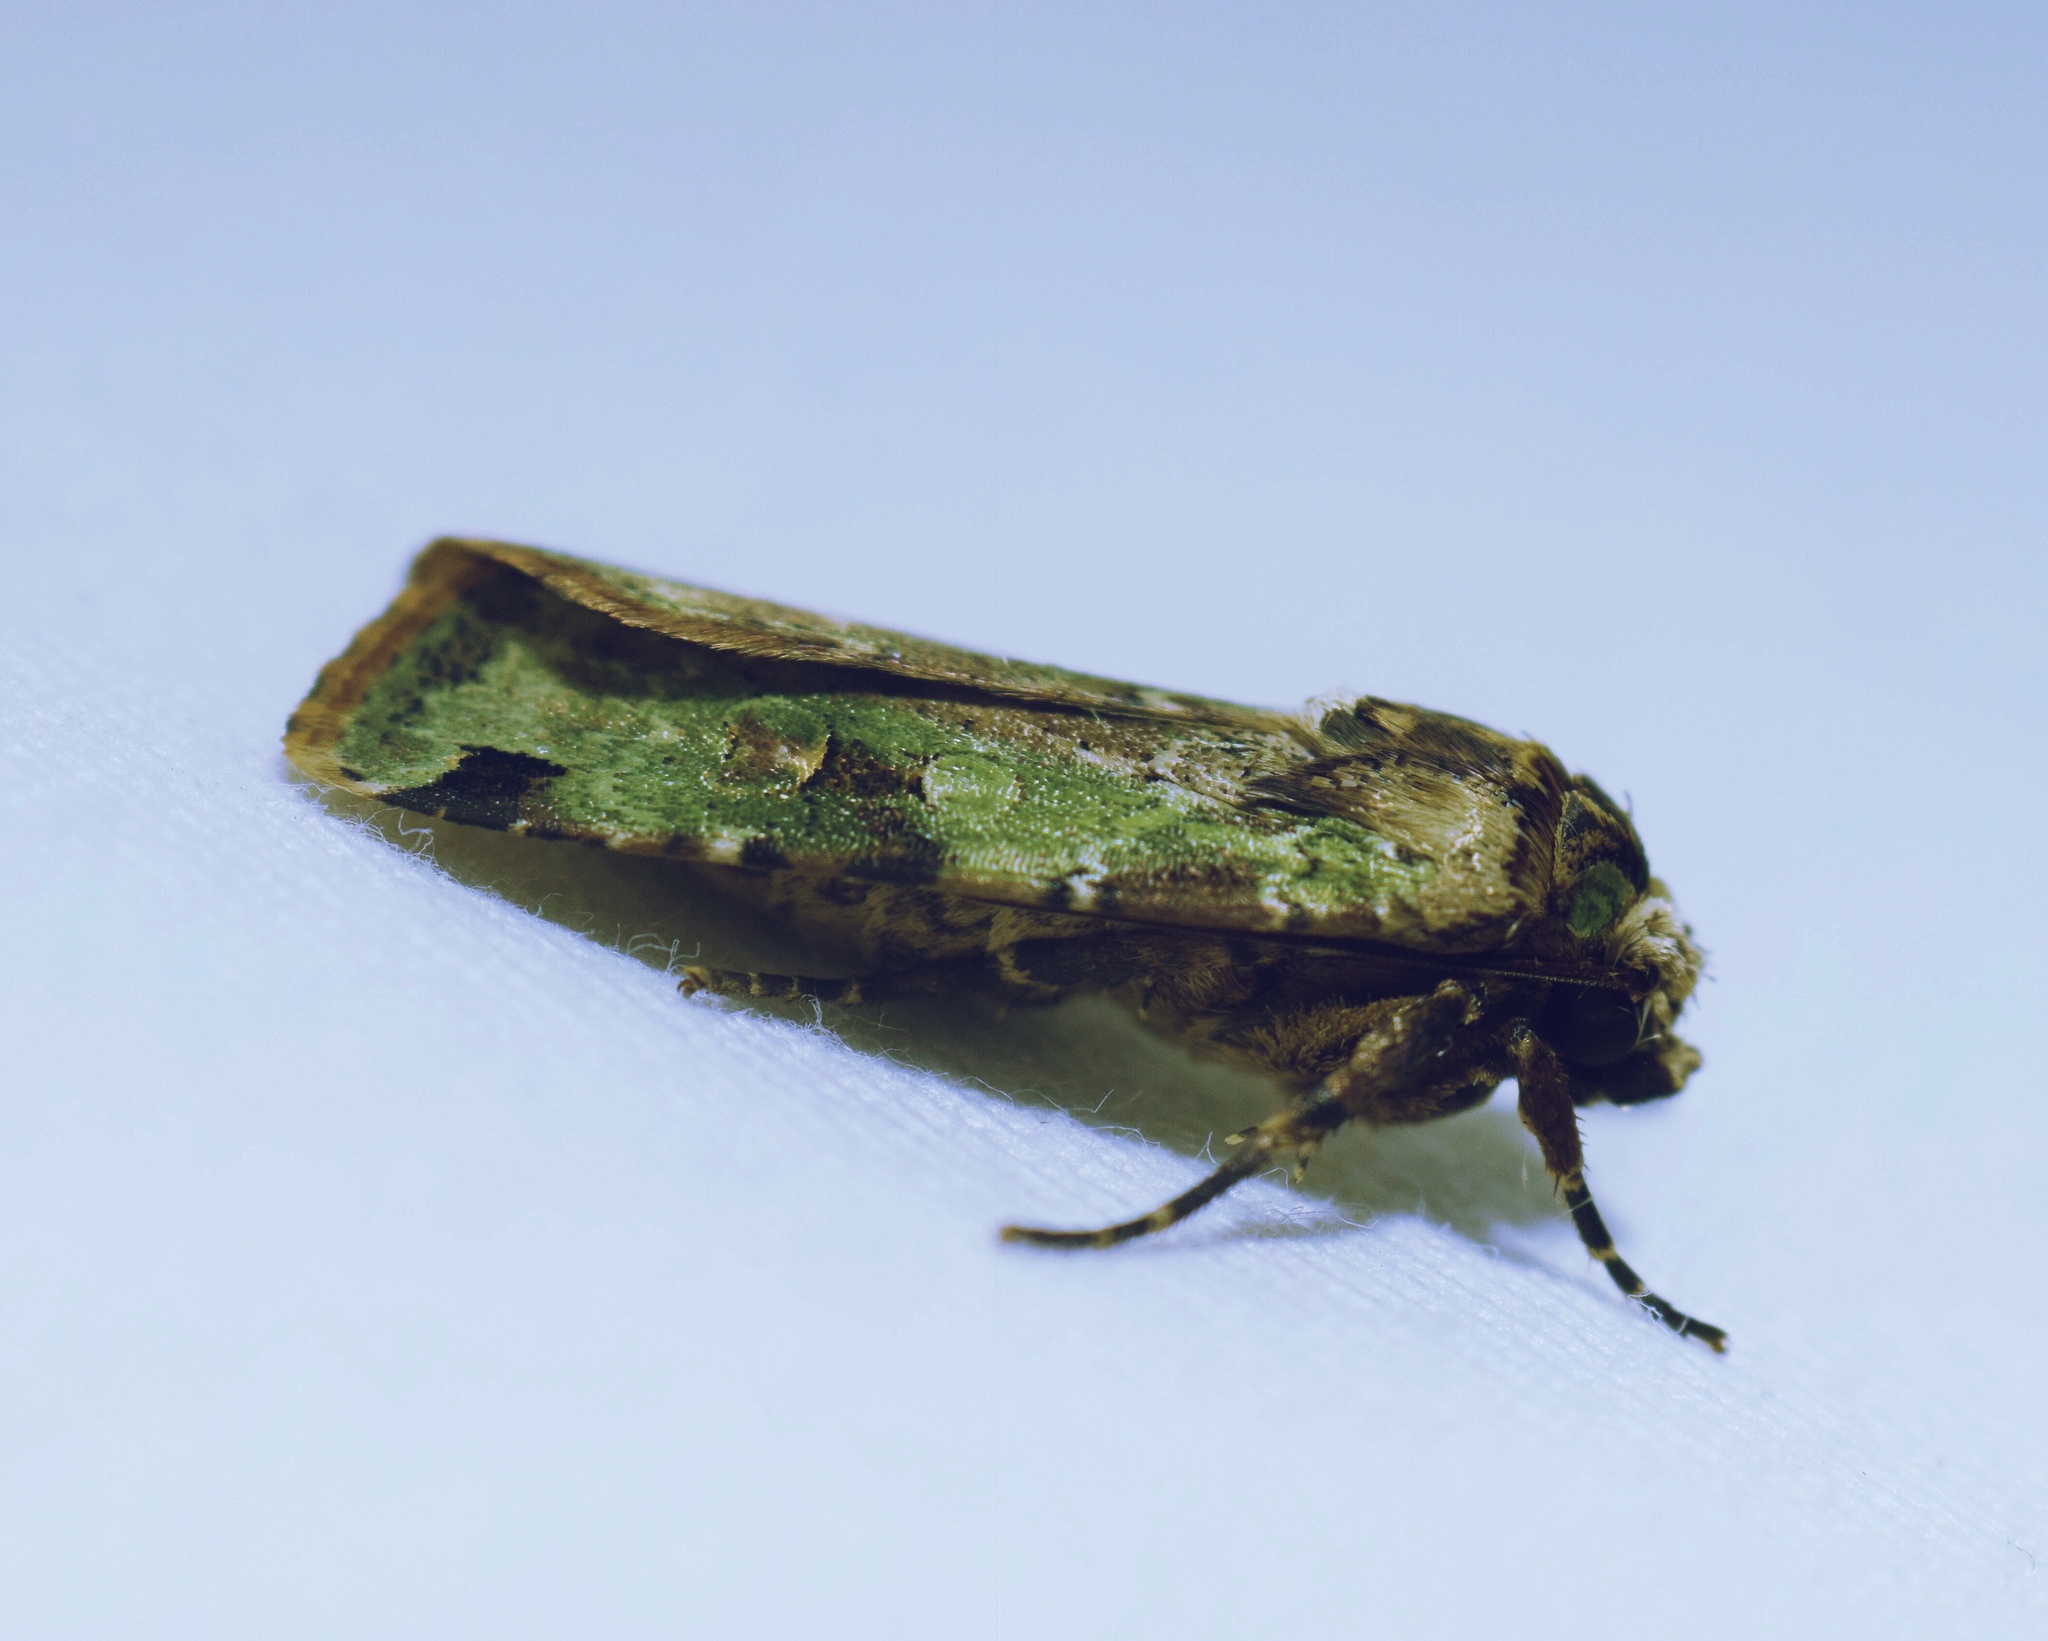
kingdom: Animalia
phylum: Arthropoda
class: Insecta
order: Lepidoptera
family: Noctuidae
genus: Mentaxya
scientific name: Mentaxya ignicollis
